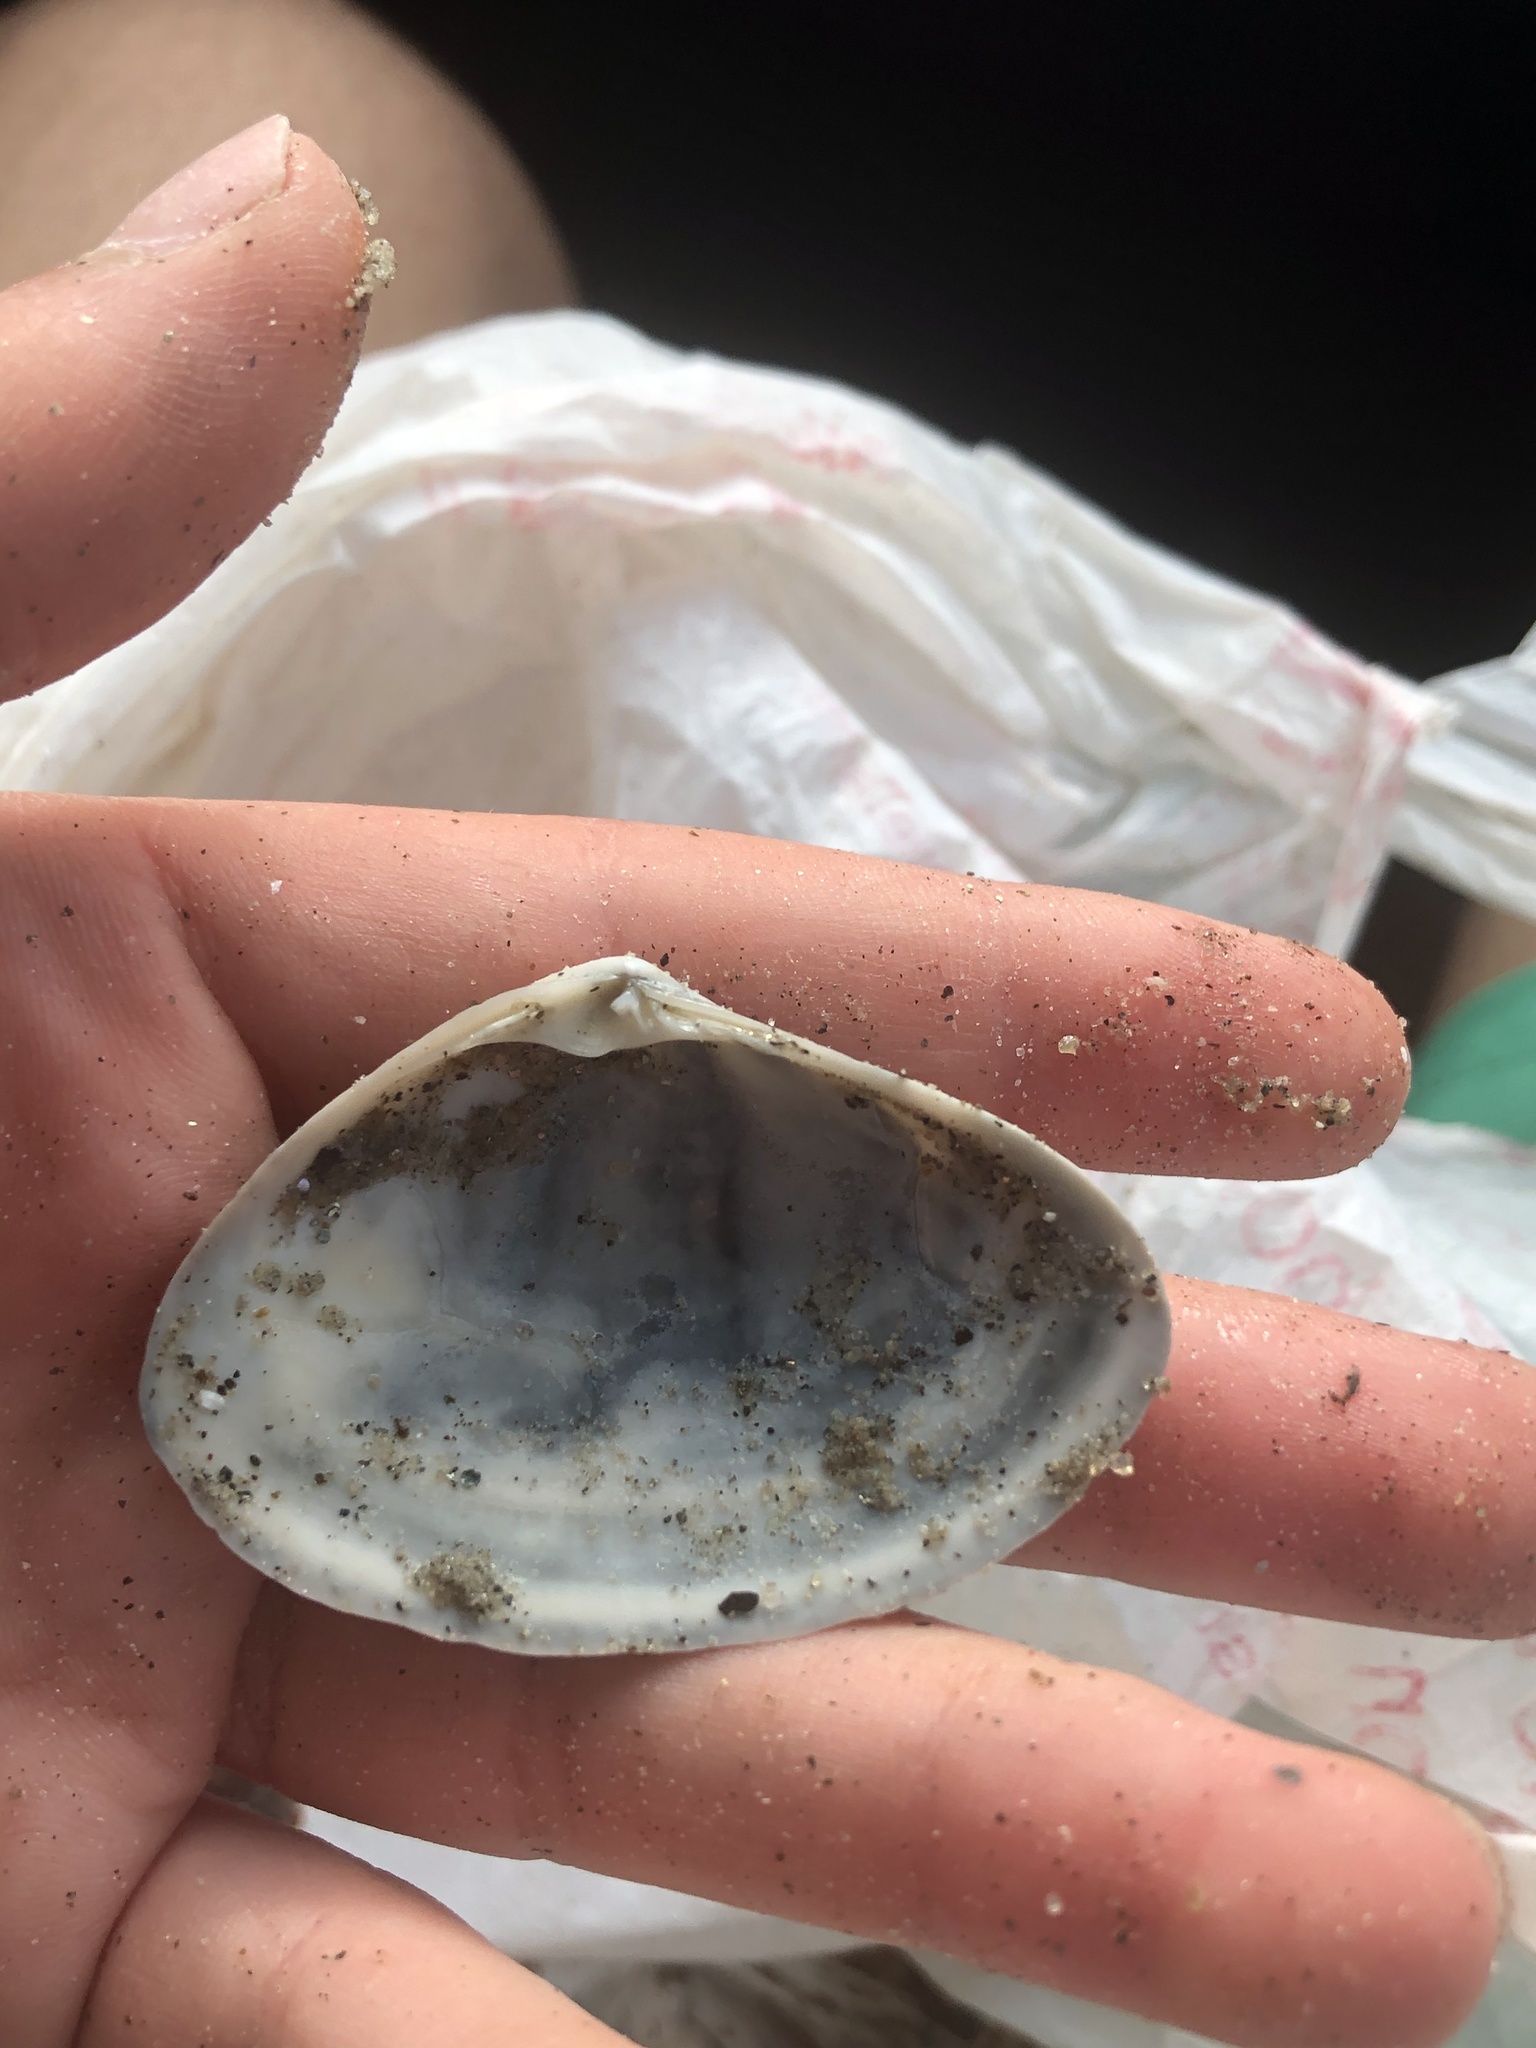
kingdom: Animalia
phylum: Mollusca
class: Bivalvia
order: Venerida
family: Mactridae
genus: Simomactra
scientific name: Simomactra falcata
